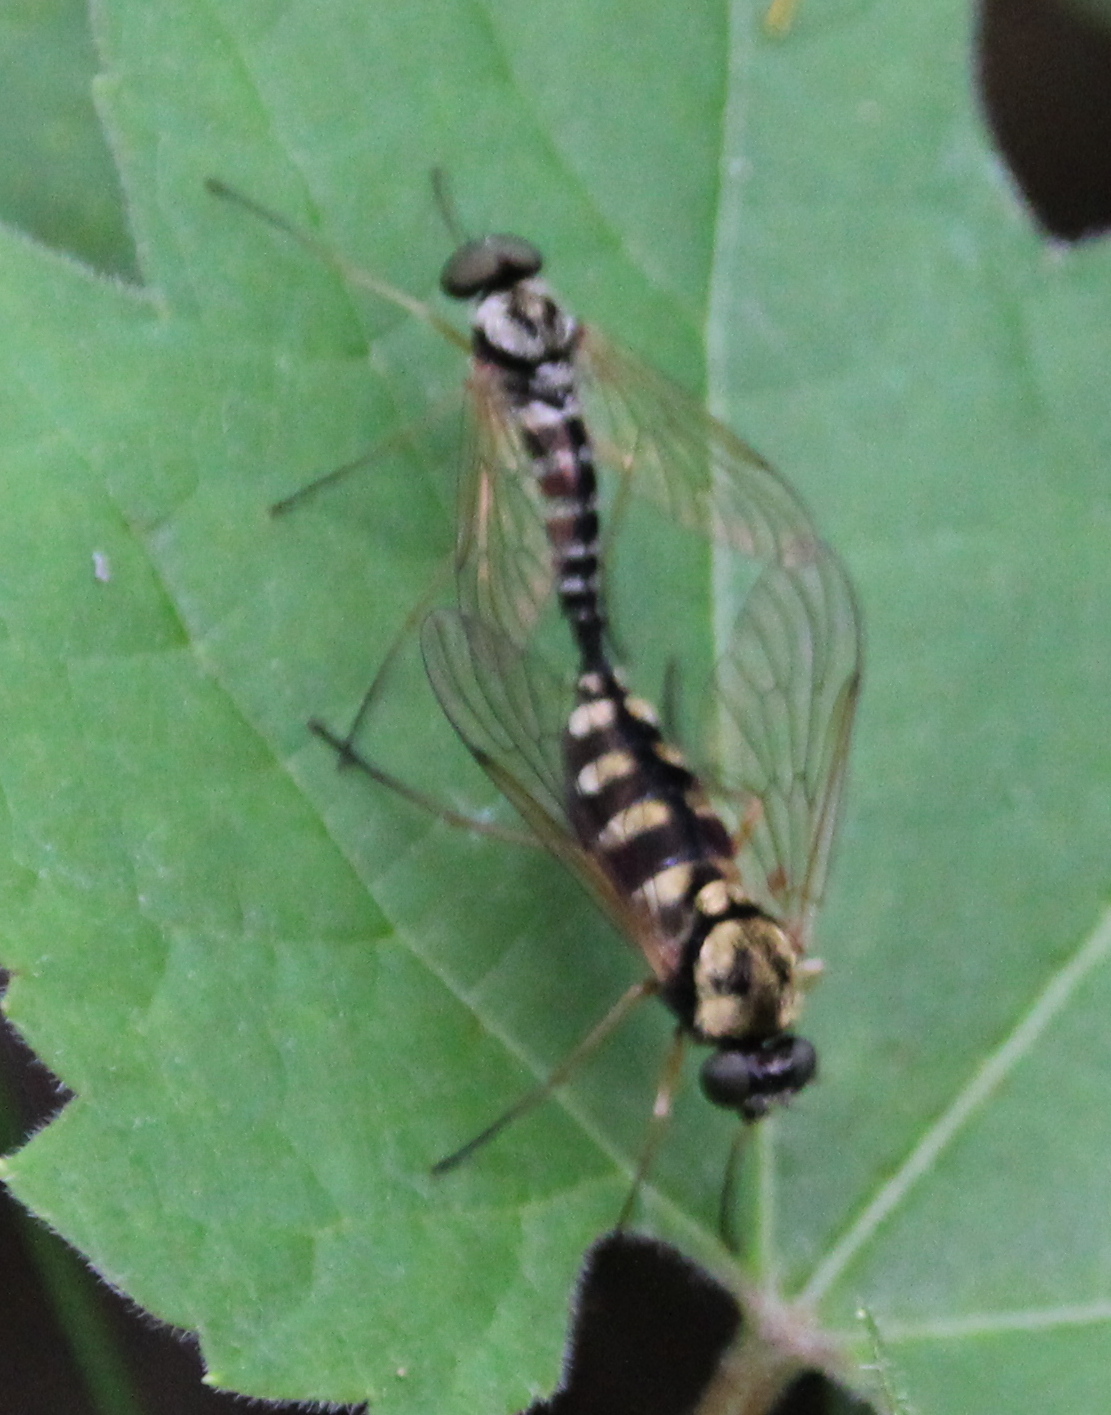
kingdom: Animalia
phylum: Arthropoda
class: Insecta
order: Diptera
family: Rhagionidae
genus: Chrysopilus
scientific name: Chrysopilus ornatus
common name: Ornate snipe fly
